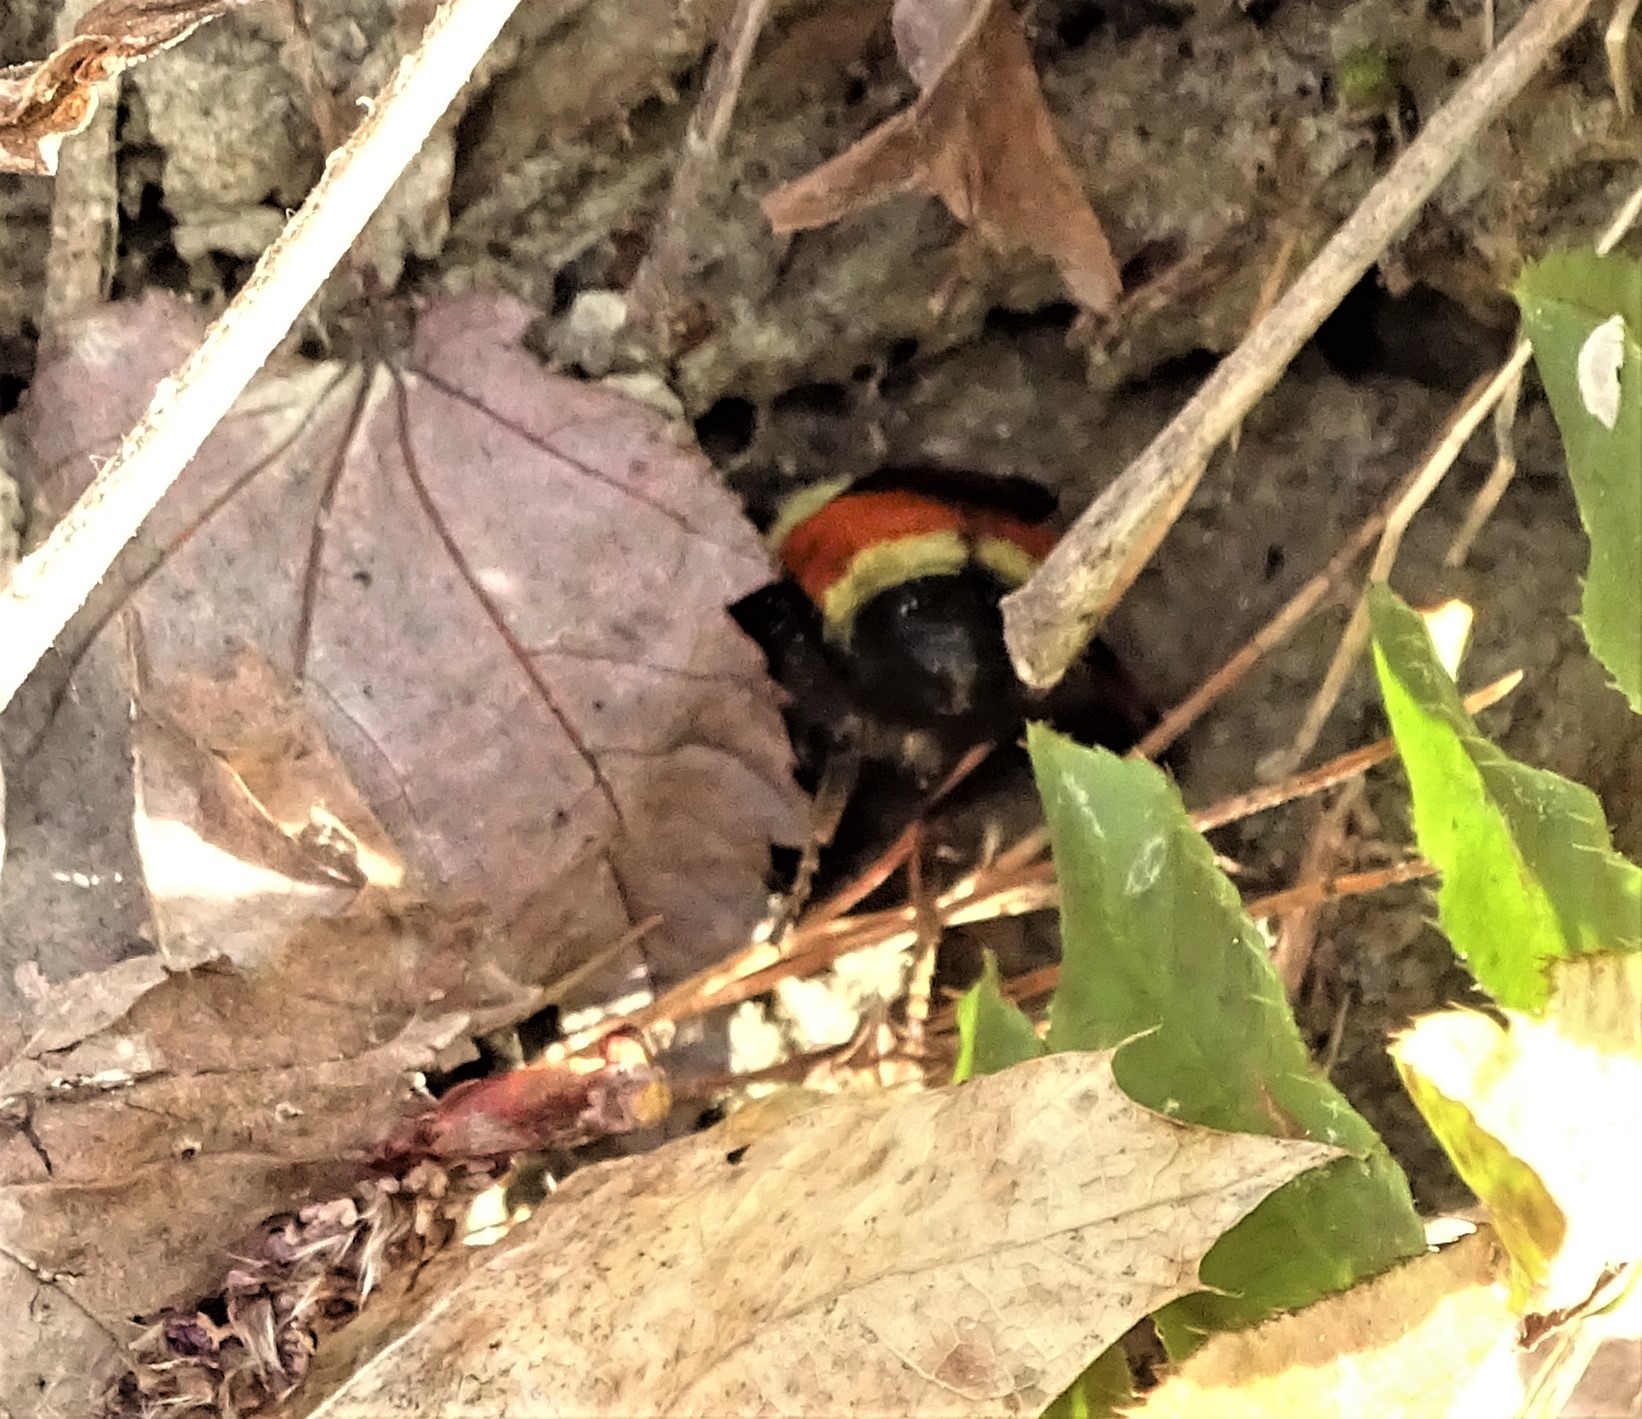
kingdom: Animalia
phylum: Arthropoda
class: Insecta
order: Hymenoptera
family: Apidae
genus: Bombus
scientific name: Bombus ternarius
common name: Tri-colored bumble bee
